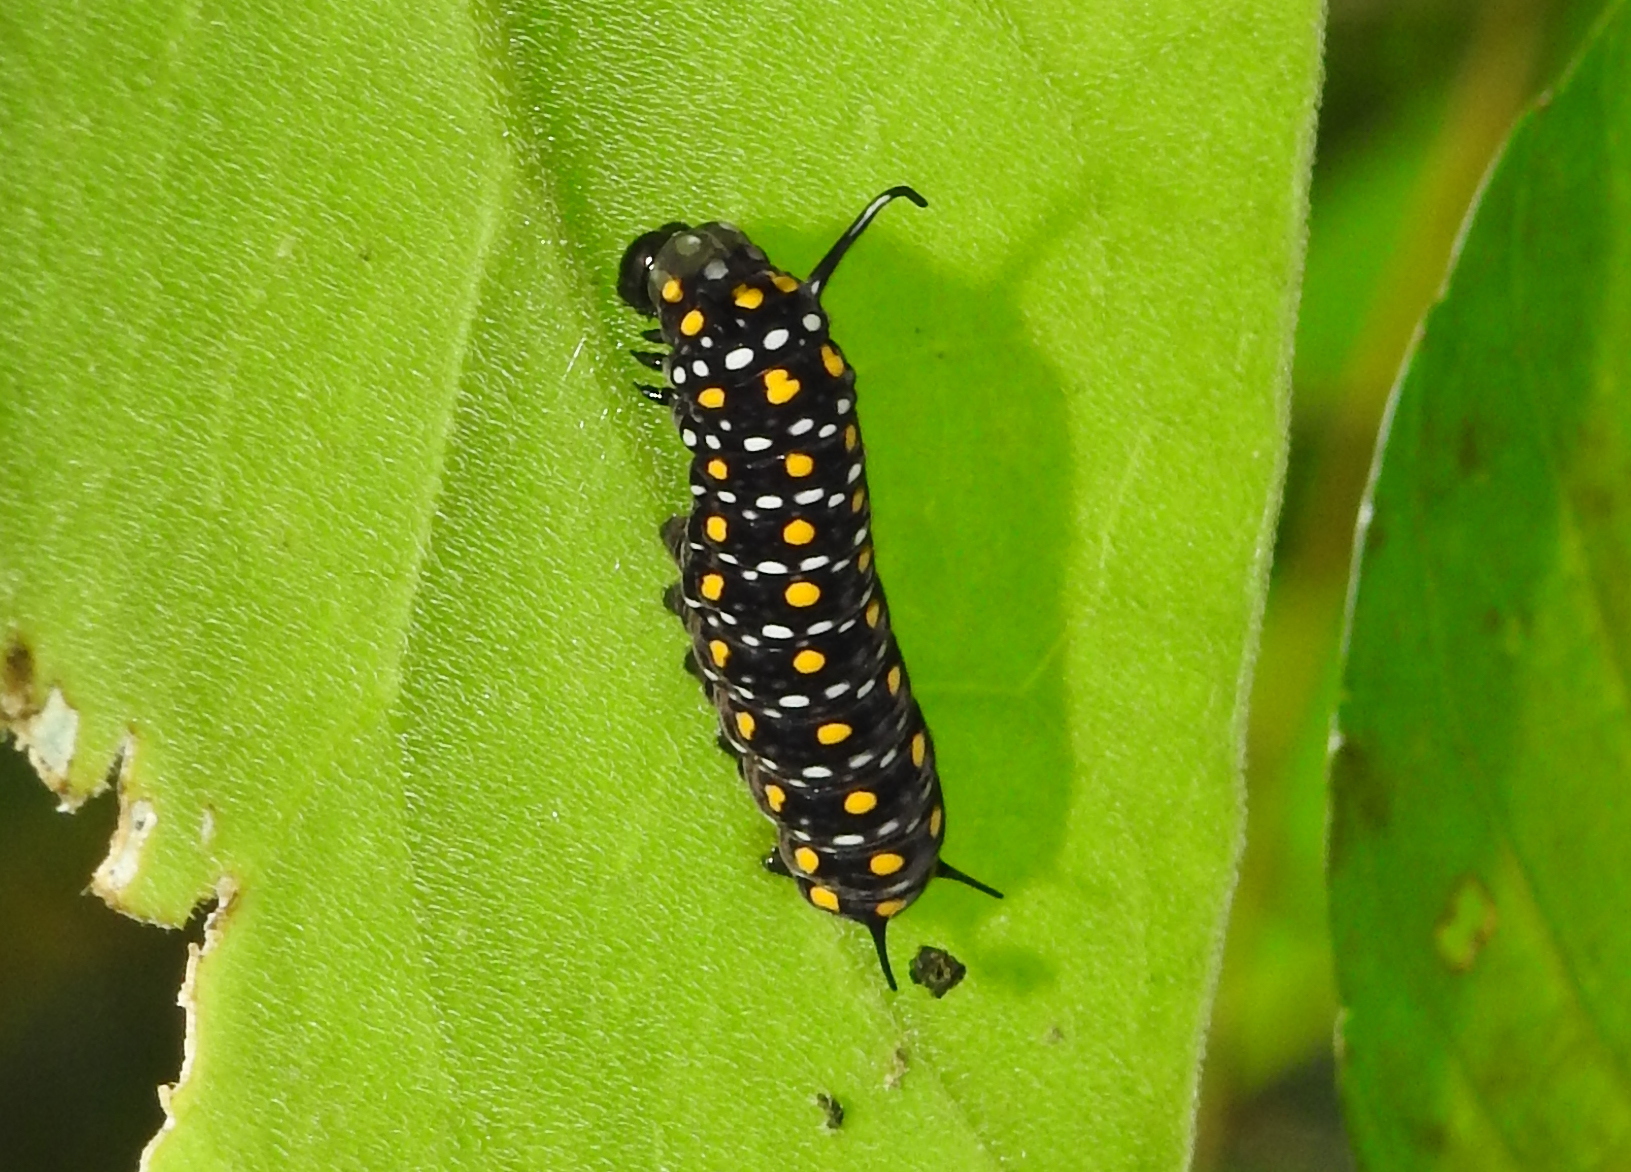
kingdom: Animalia
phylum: Arthropoda
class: Insecta
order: Lepidoptera
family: Nymphalidae
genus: Parantica
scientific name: Parantica aspasia
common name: Yellow glassy tiger
